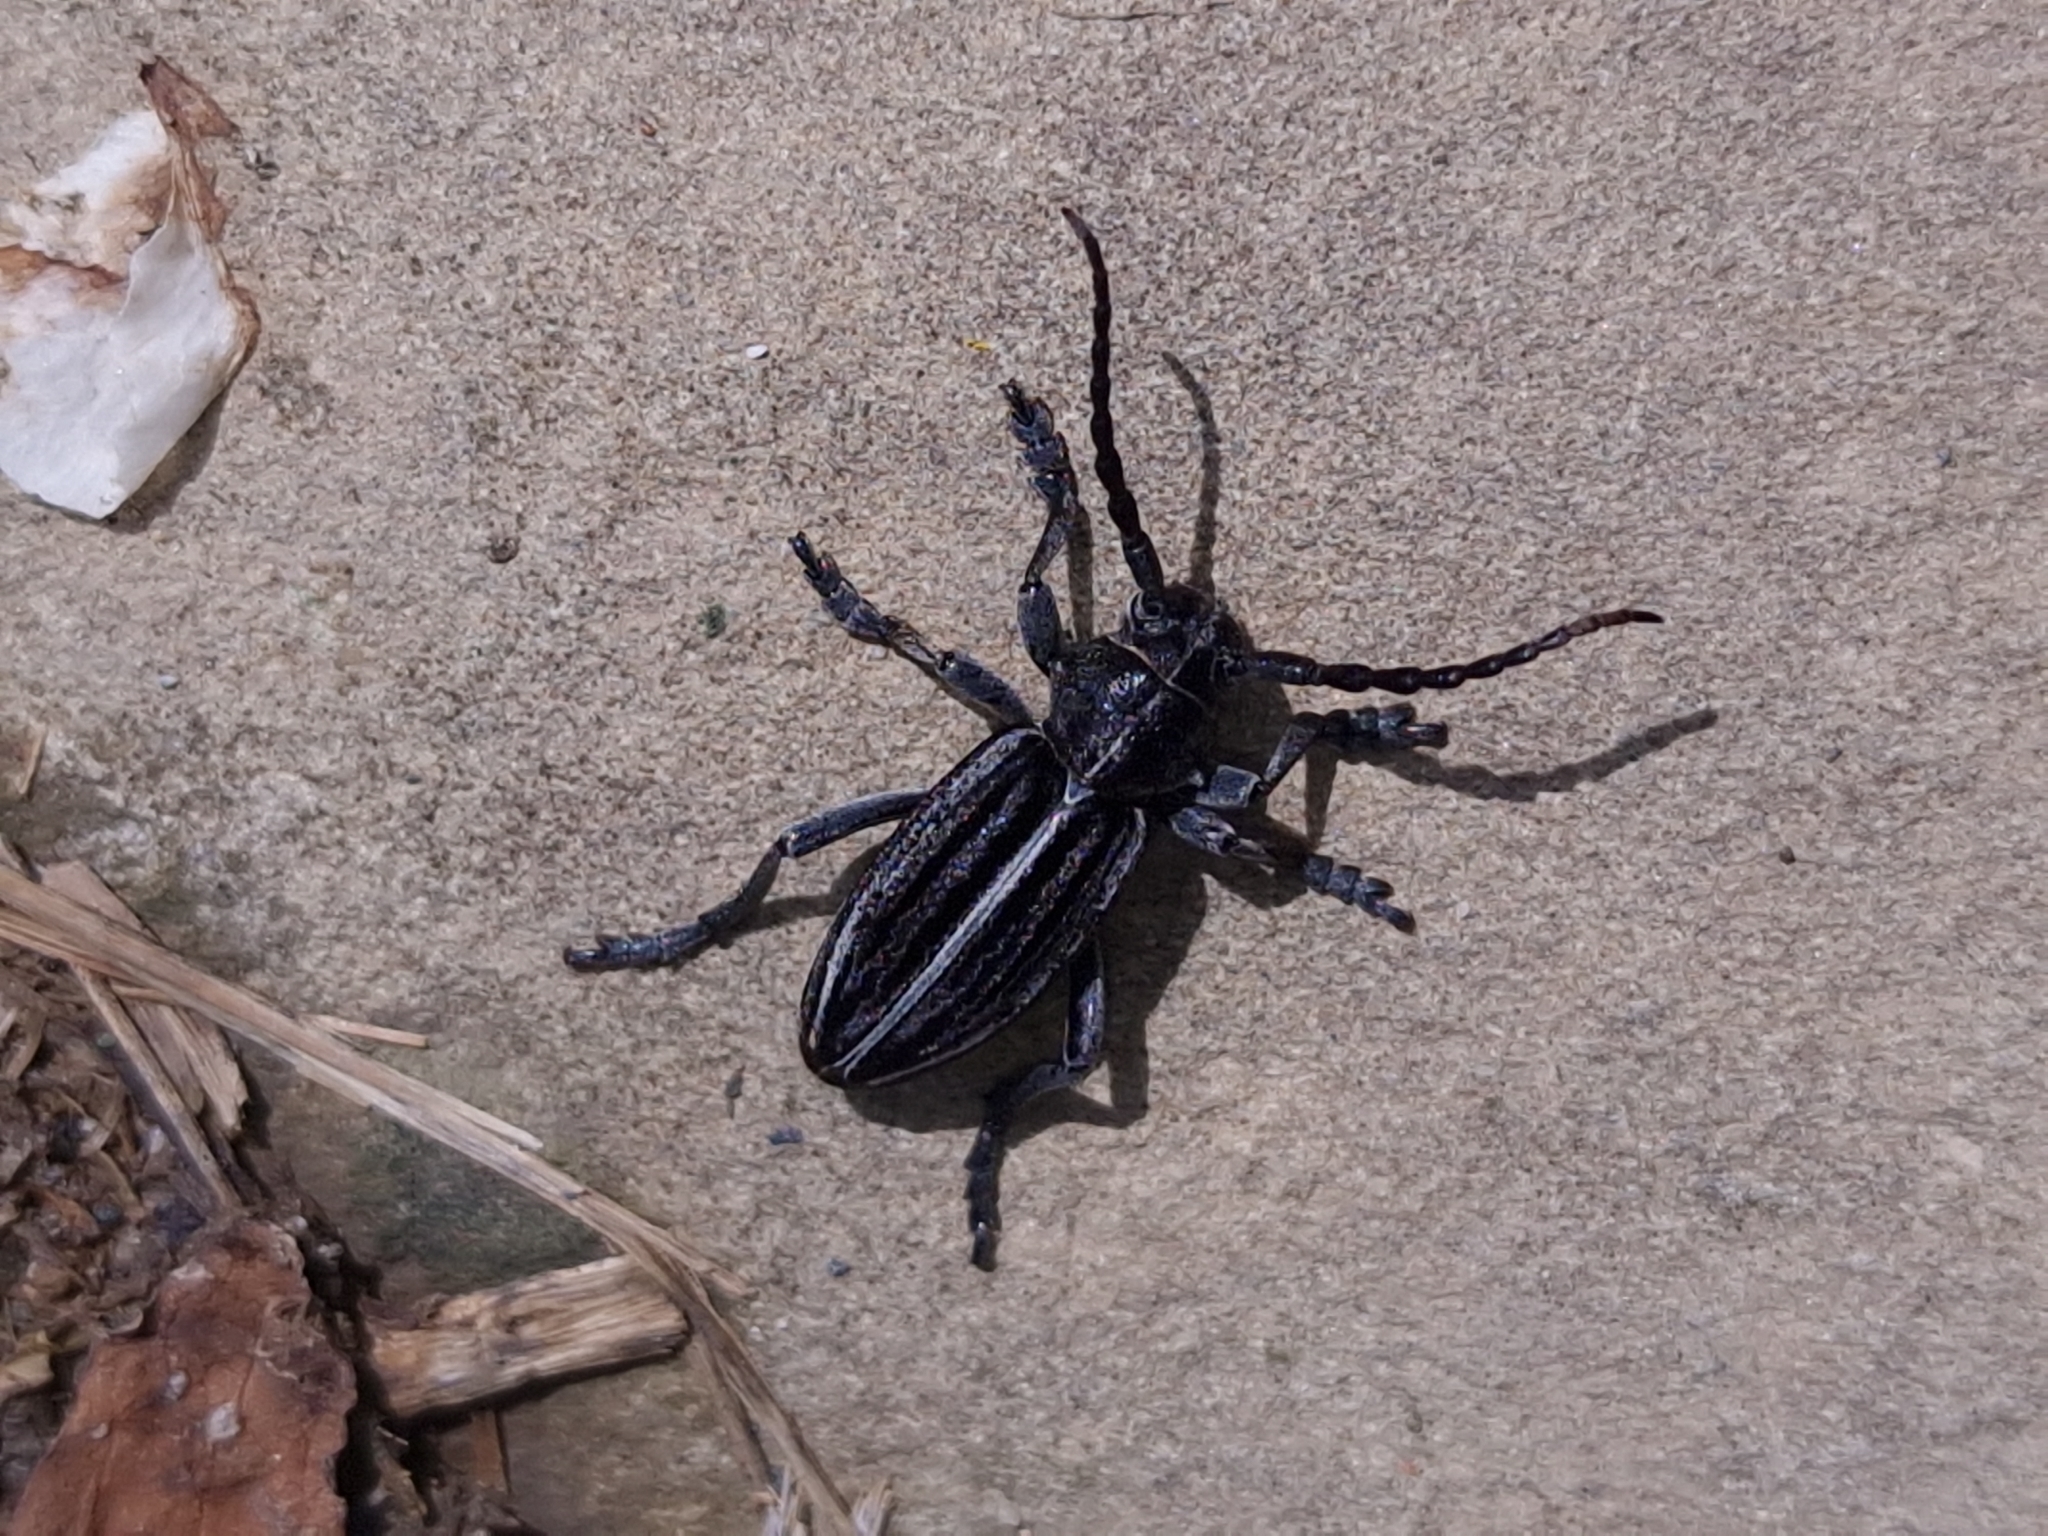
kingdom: Animalia
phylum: Arthropoda
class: Insecta
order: Coleoptera
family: Cerambycidae
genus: Dorcadion
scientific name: Dorcadion holosericeum
